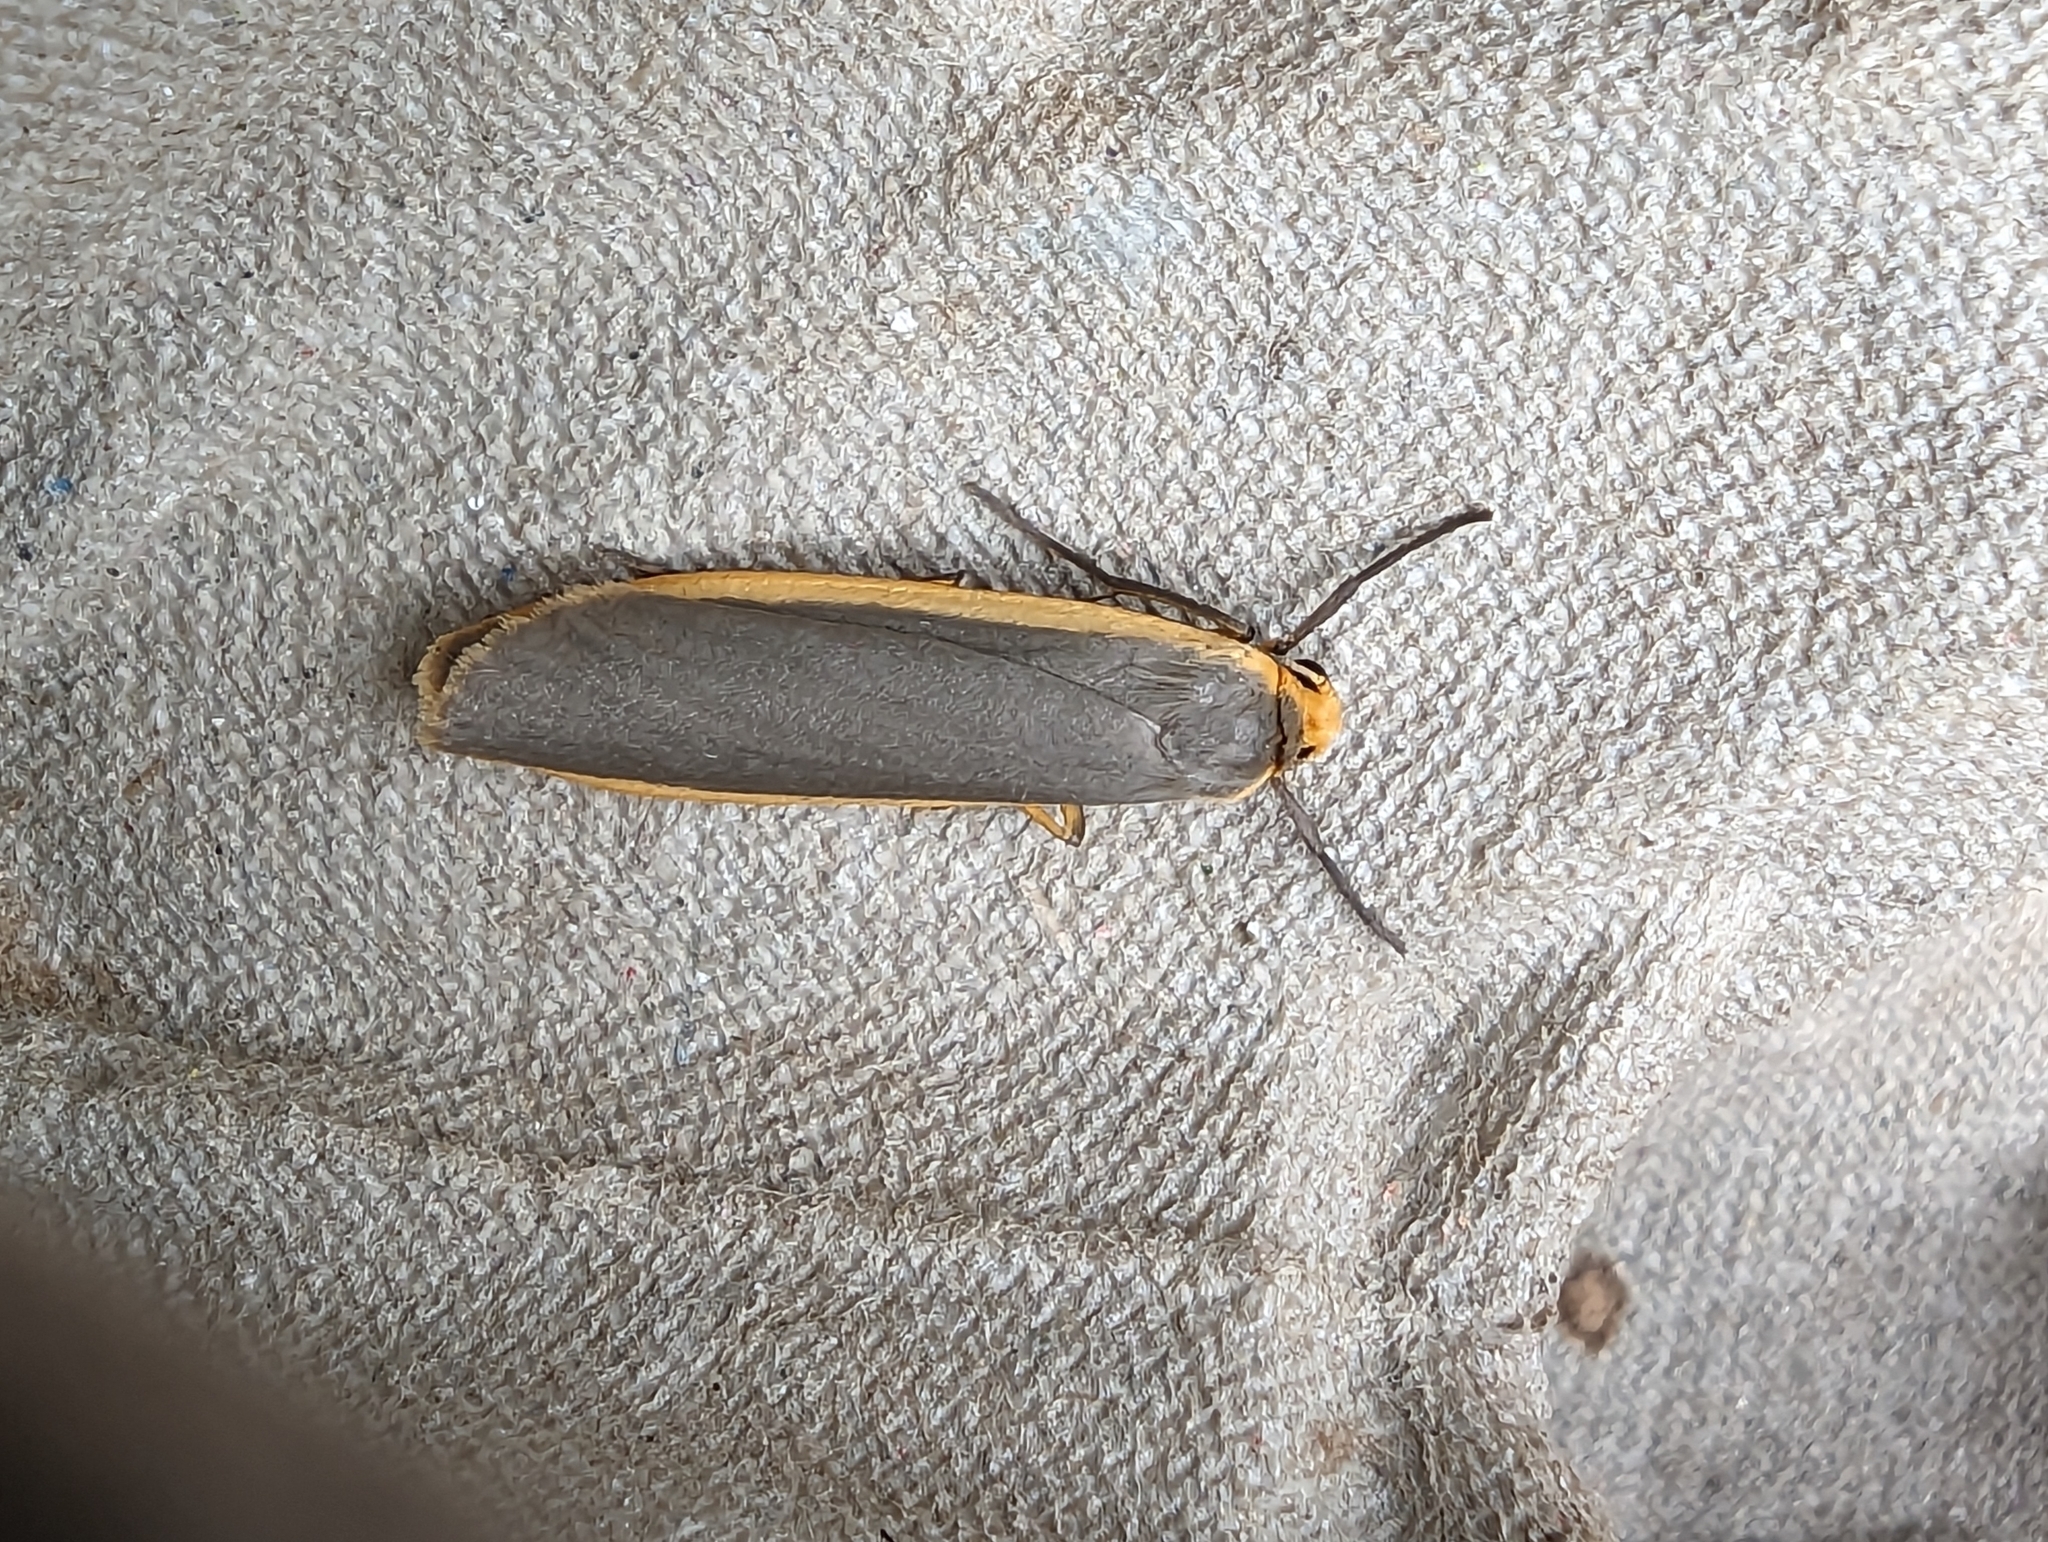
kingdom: Animalia
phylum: Arthropoda
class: Insecta
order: Lepidoptera
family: Erebidae
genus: Nyea
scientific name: Nyea lurideola
